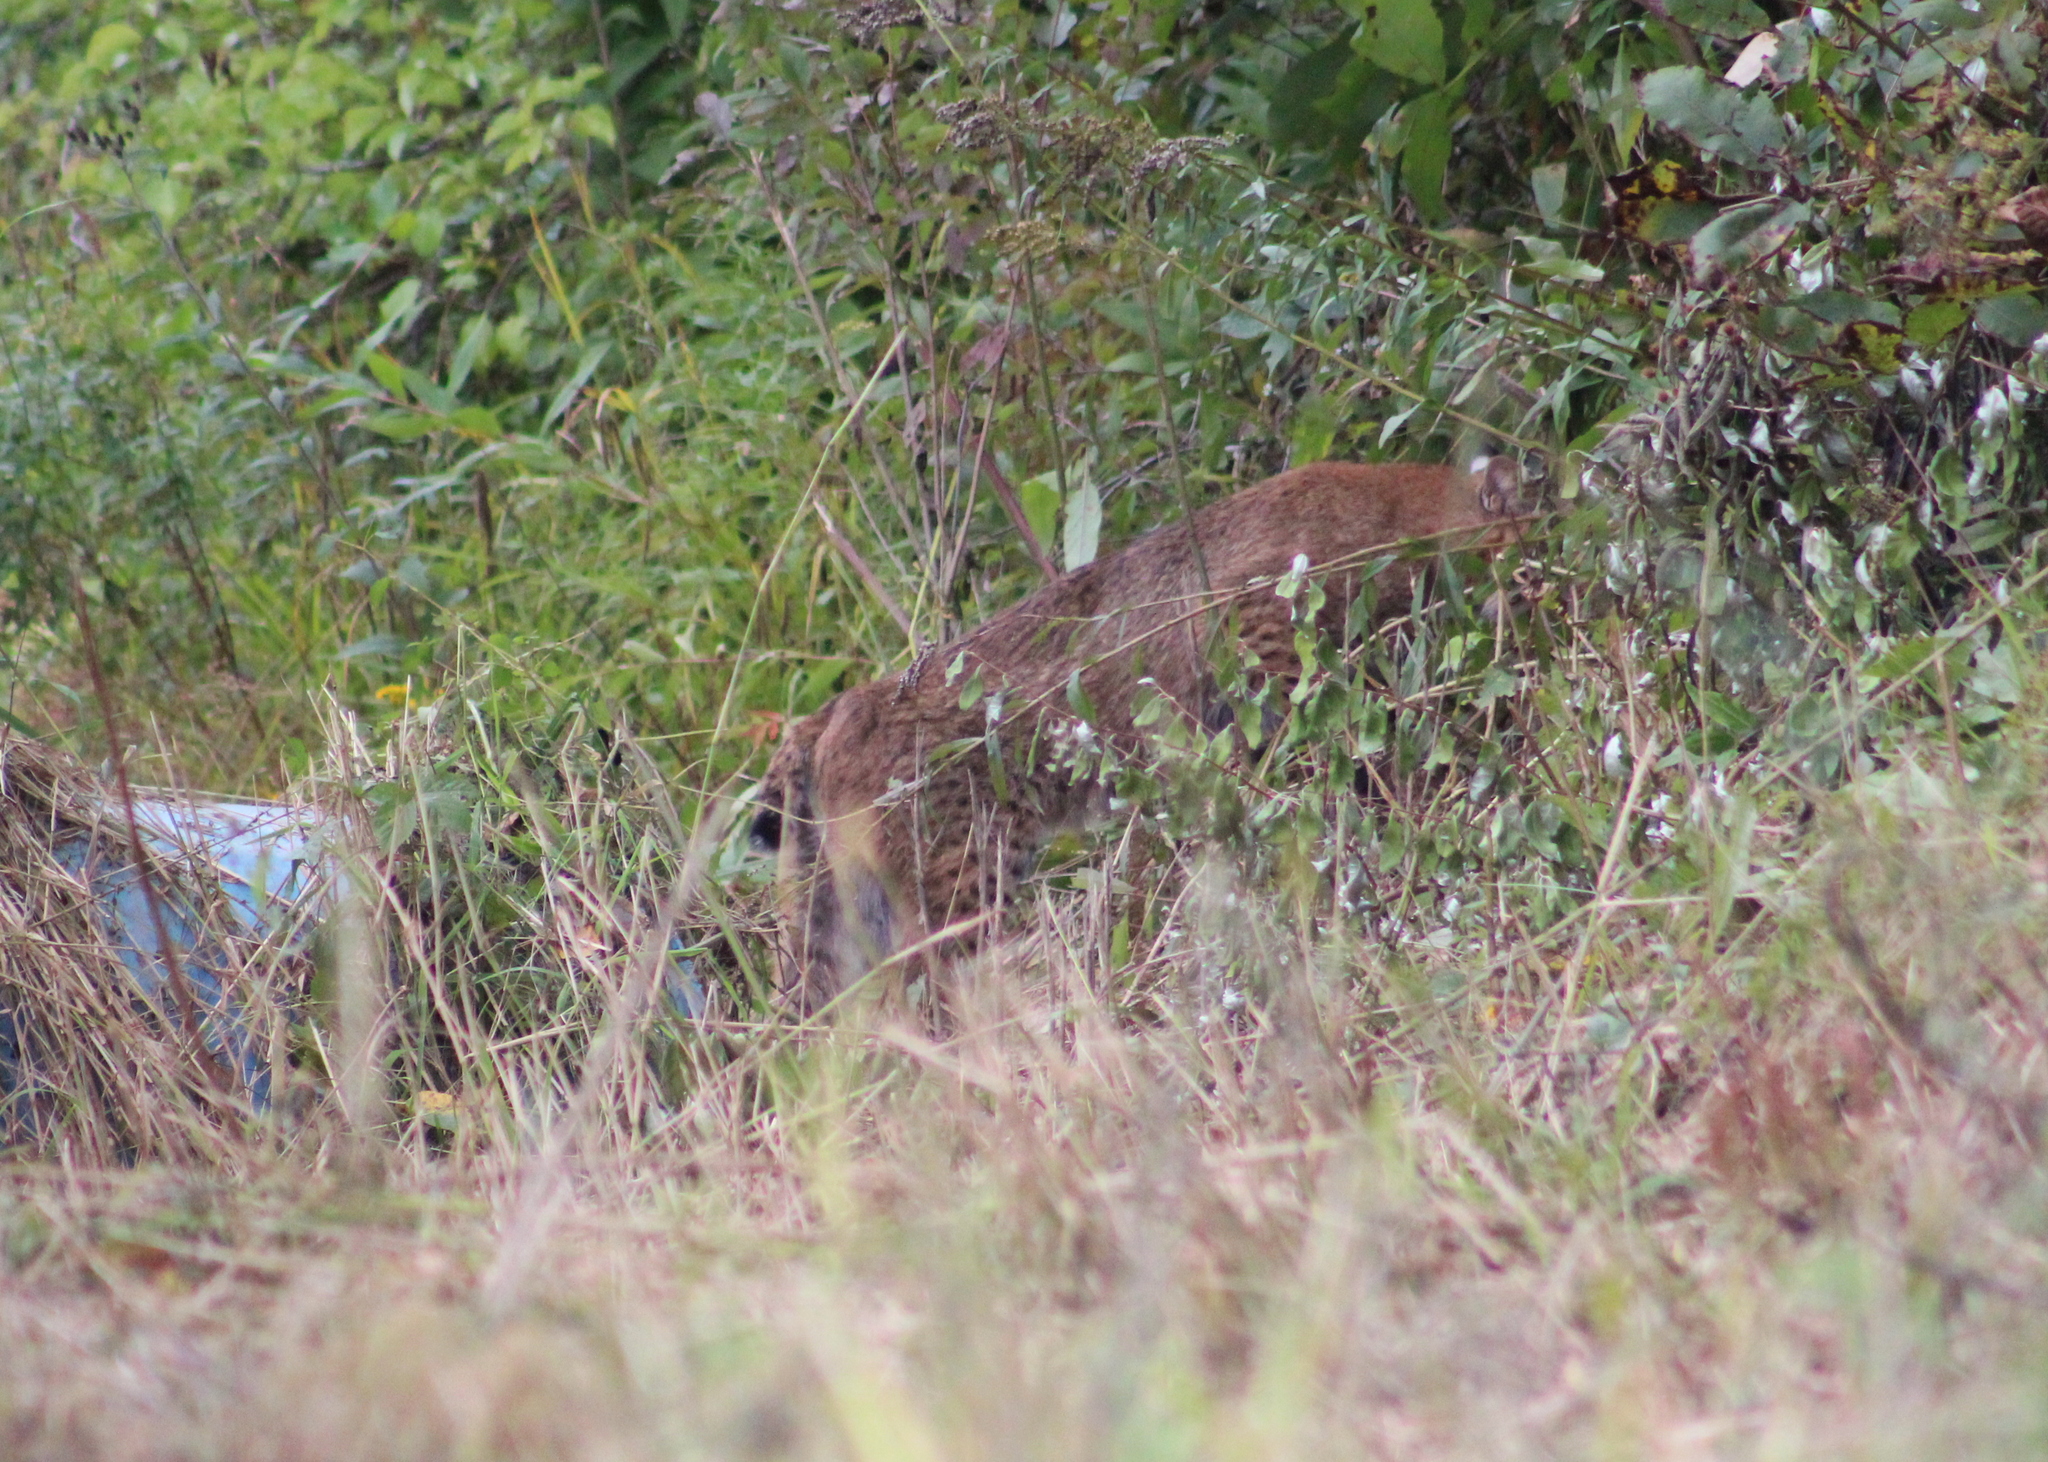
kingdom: Animalia
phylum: Chordata
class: Mammalia
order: Carnivora
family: Felidae
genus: Lynx
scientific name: Lynx rufus
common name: Bobcat
